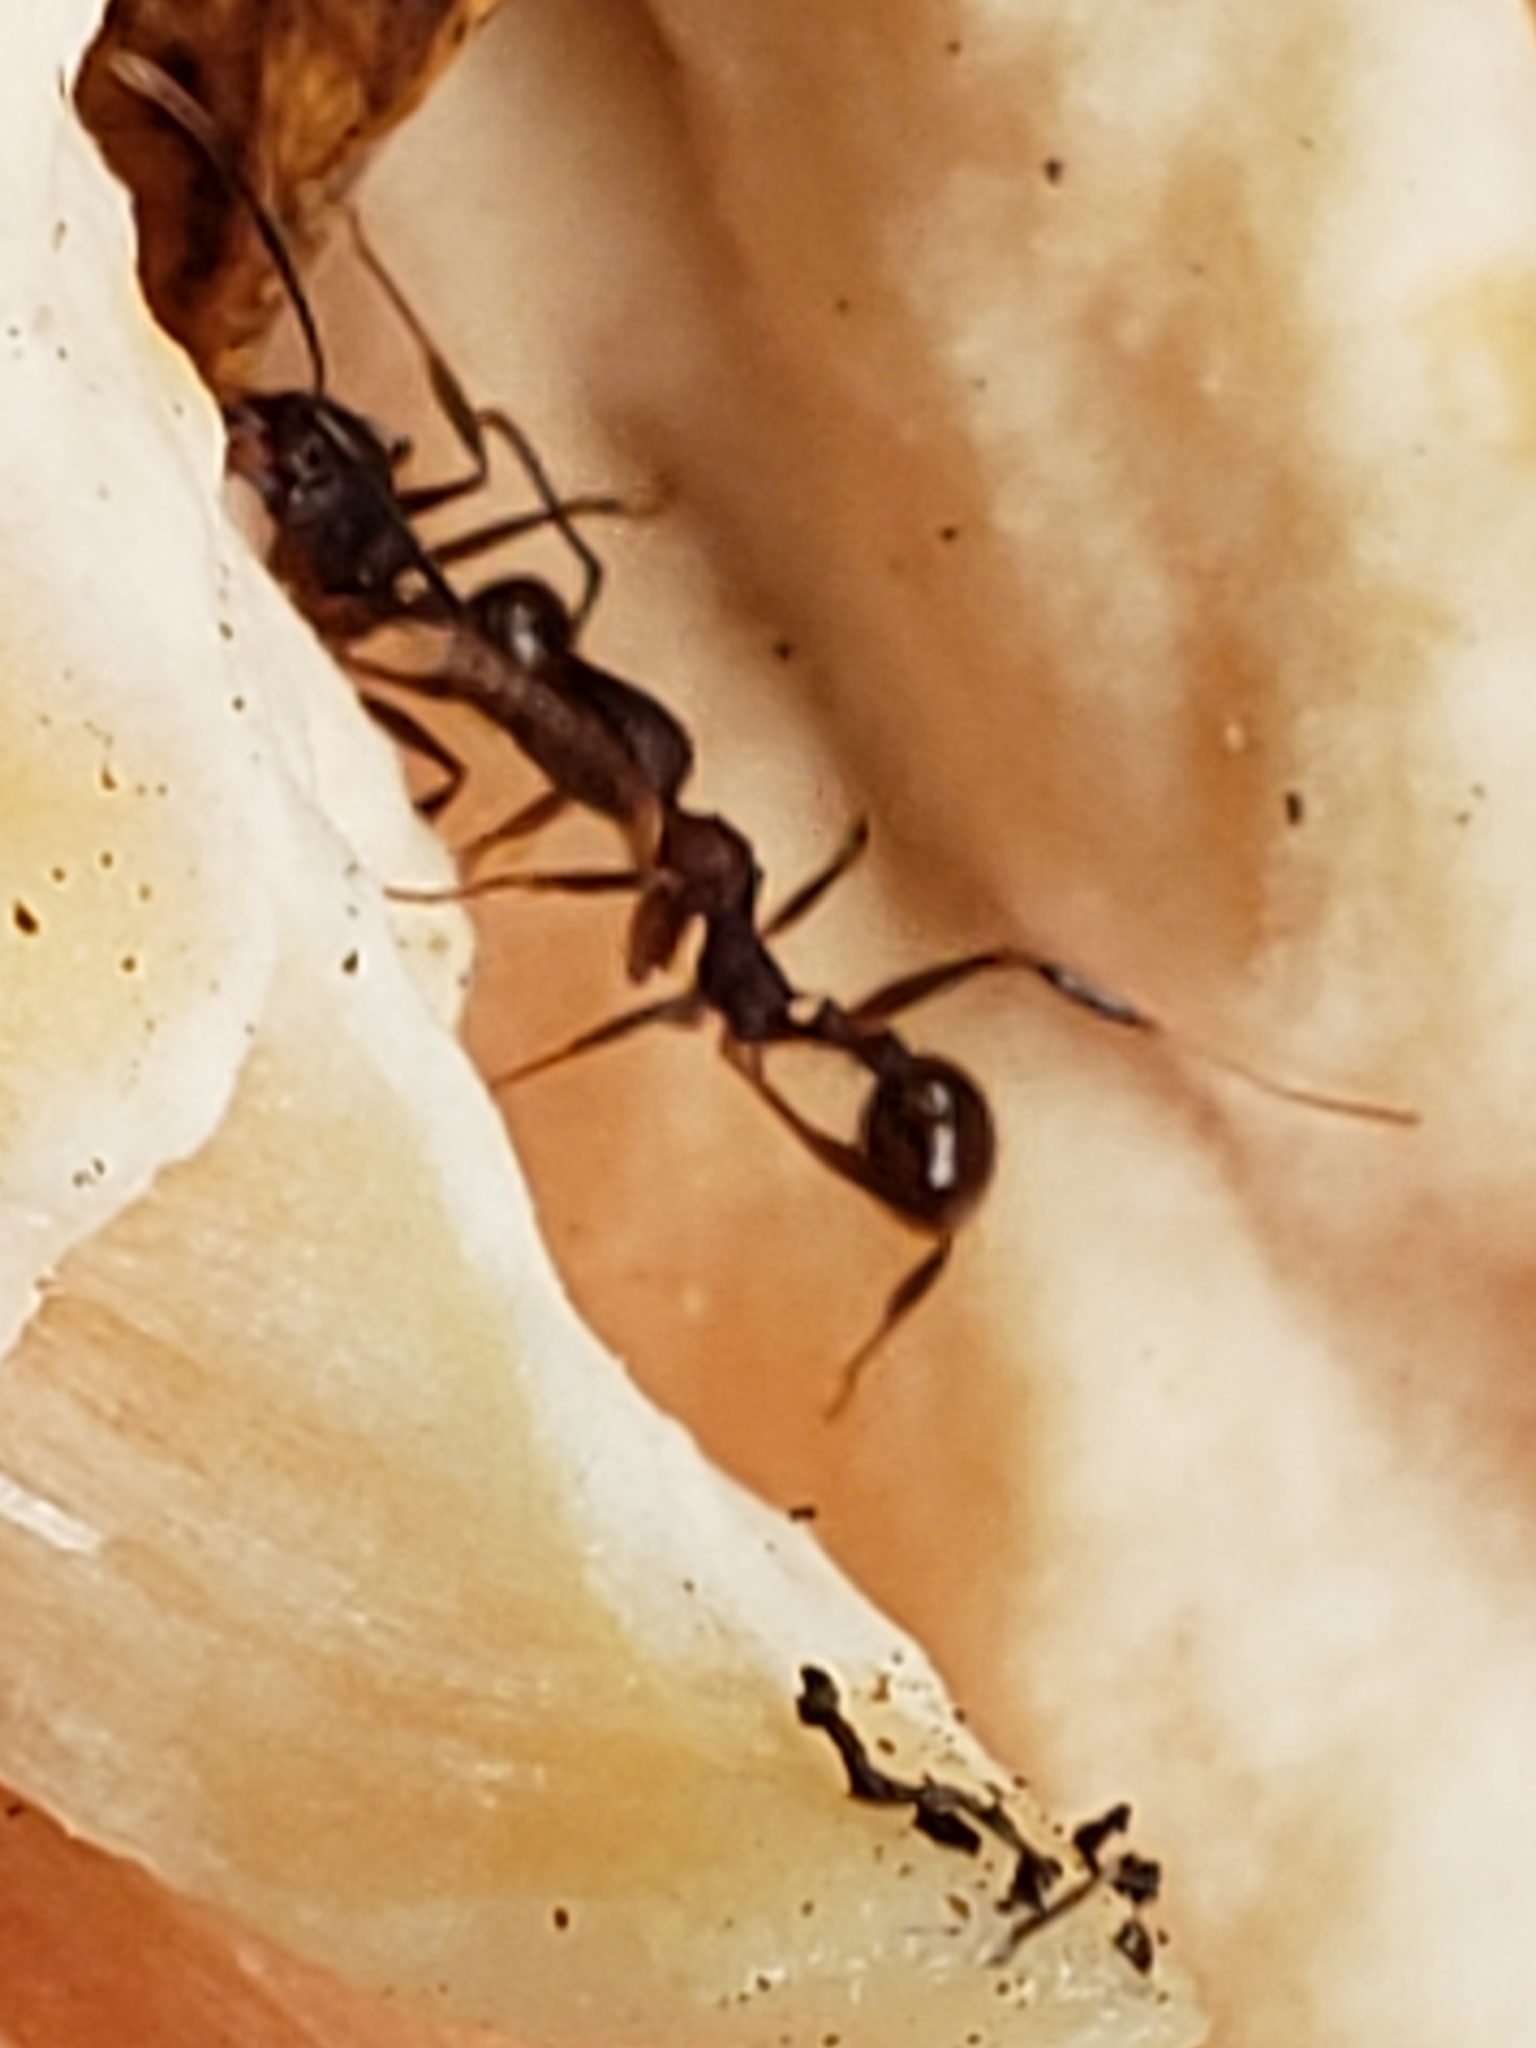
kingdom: Animalia
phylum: Arthropoda
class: Insecta
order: Hymenoptera
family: Formicidae
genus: Aphaenogaster
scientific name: Aphaenogaster fulva
